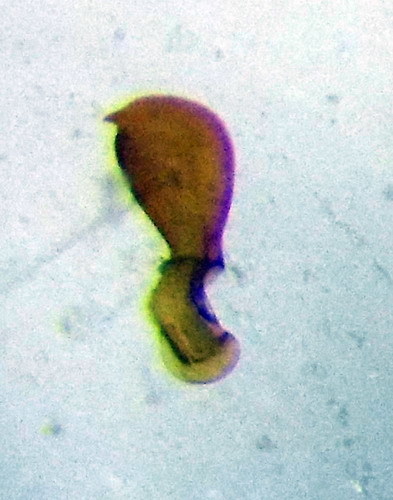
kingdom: Animalia
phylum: Arthropoda
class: Insecta
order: Hemiptera
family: Nabidae
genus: Nabis
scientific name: Nabis ferus
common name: Field damsel bug
